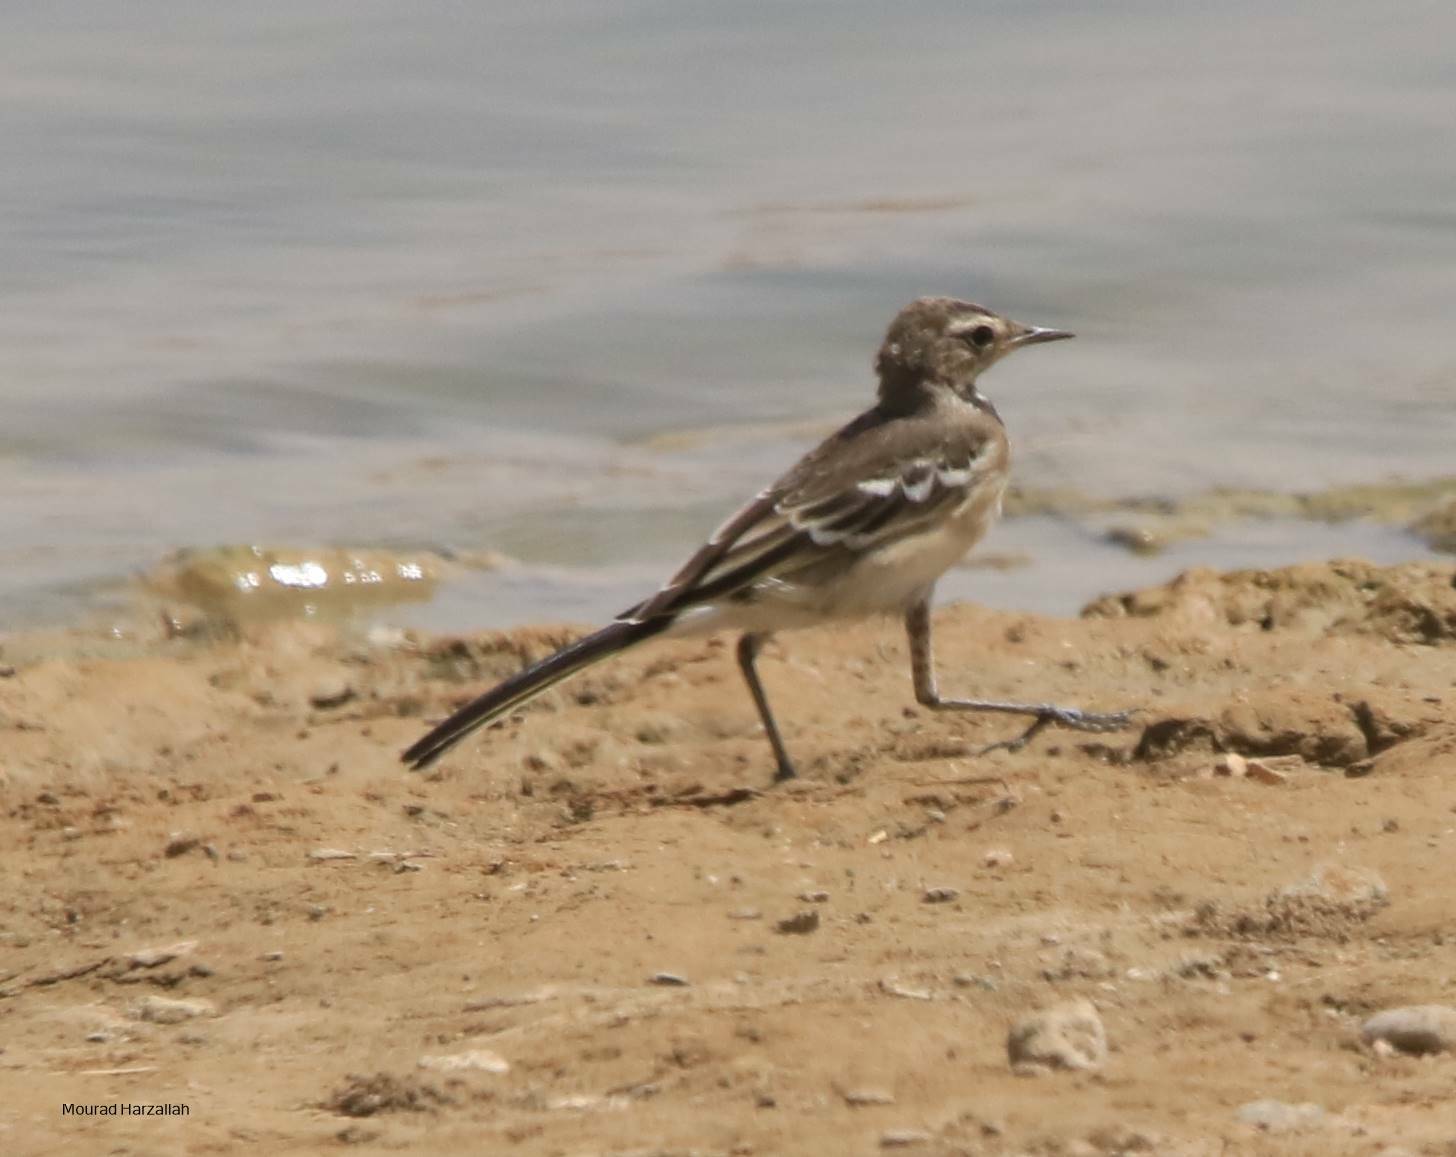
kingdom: Animalia
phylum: Chordata
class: Aves
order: Passeriformes
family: Motacillidae
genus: Motacilla
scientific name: Motacilla alba
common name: White wagtail
